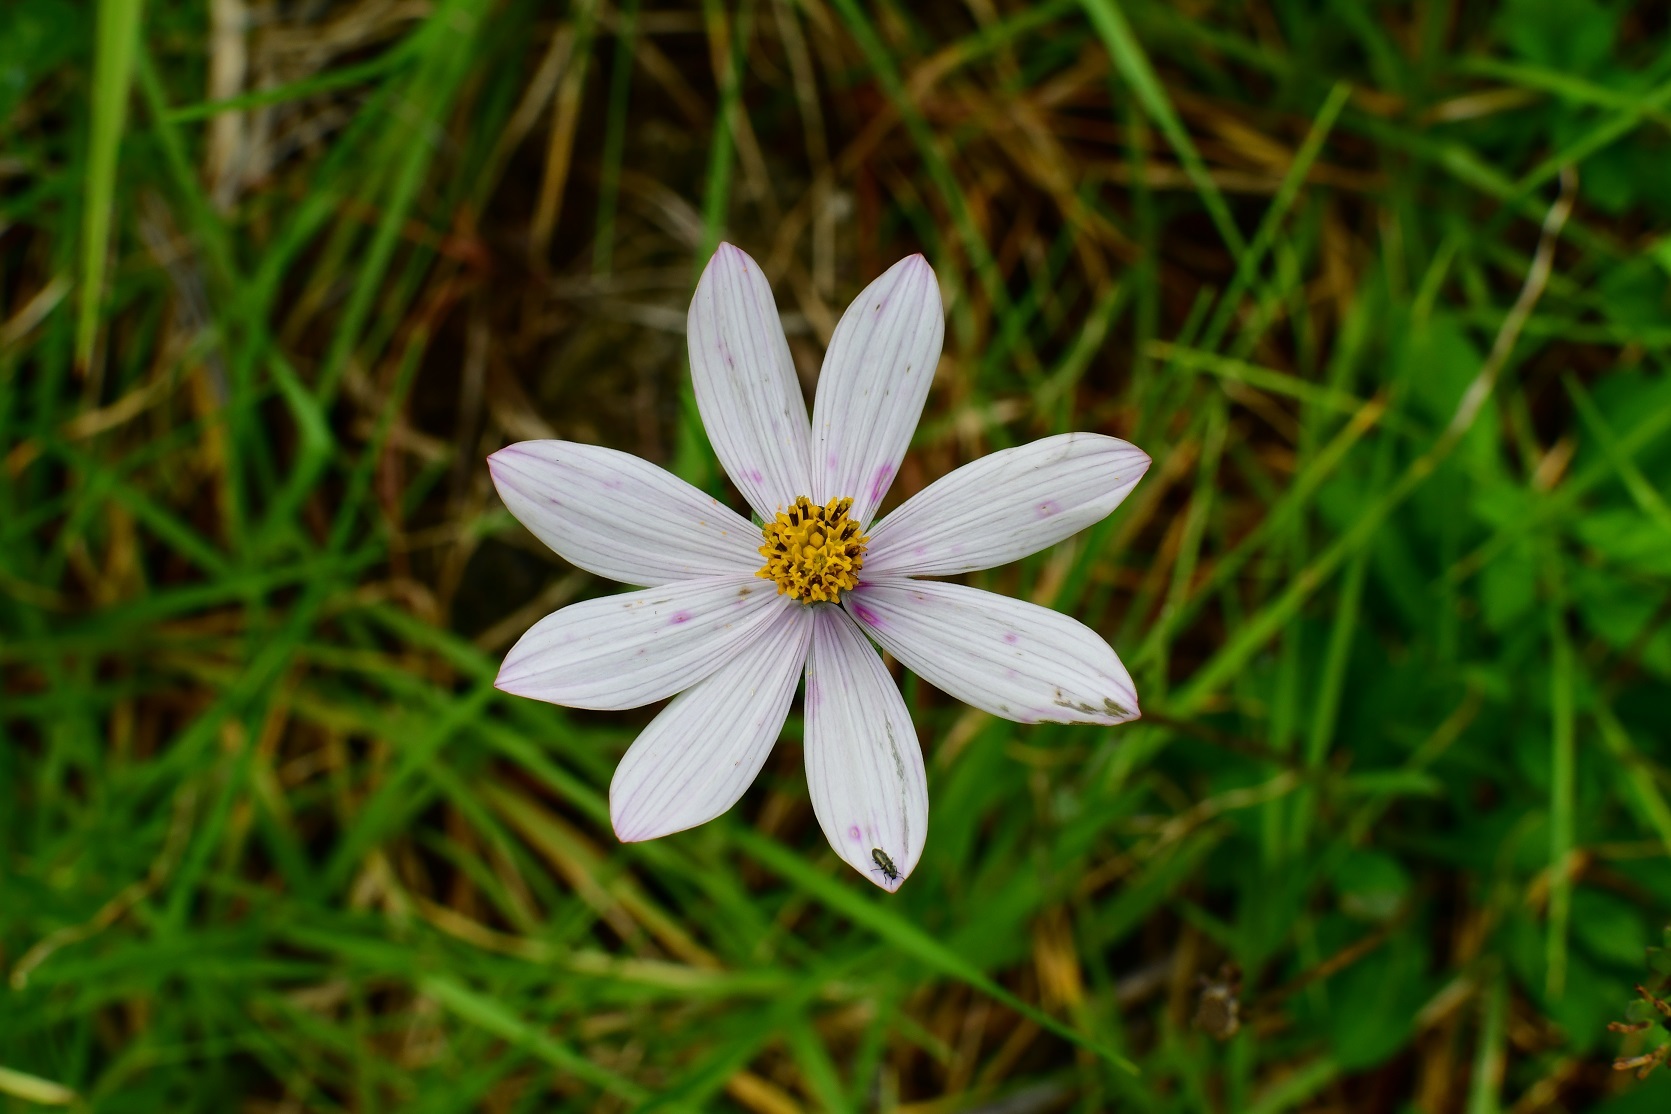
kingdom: Plantae
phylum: Tracheophyta
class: Magnoliopsida
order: Asterales
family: Asteraceae
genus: Cosmos
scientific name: Cosmos diversifolius
